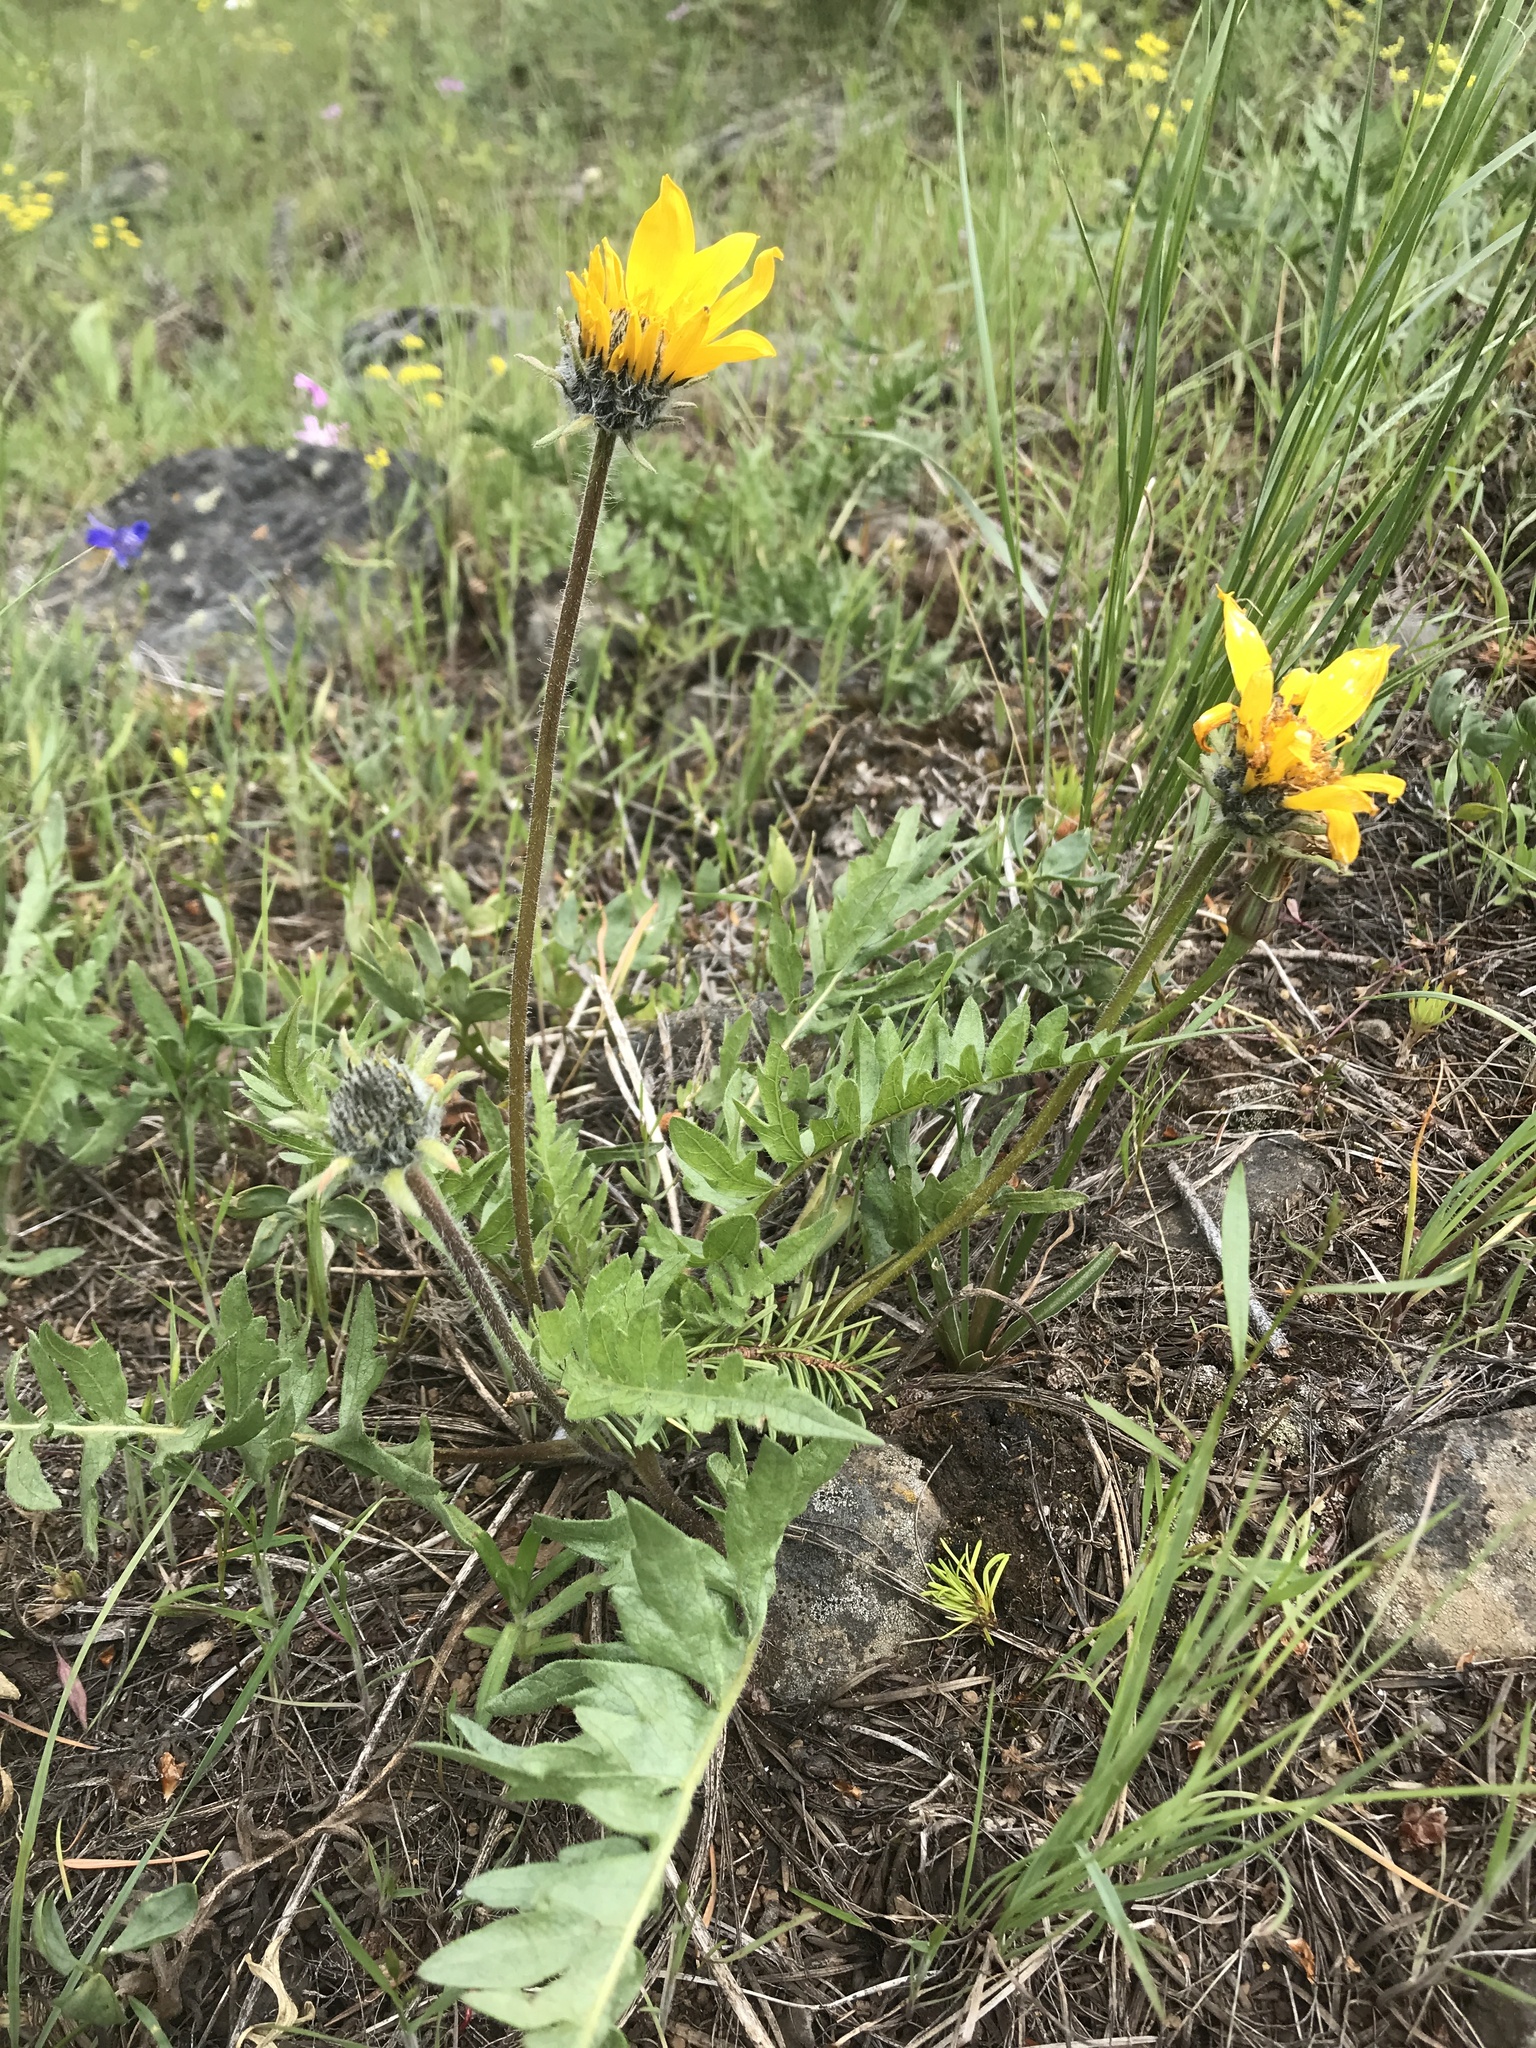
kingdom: Plantae
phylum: Tracheophyta
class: Magnoliopsida
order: Asterales
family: Asteraceae
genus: Balsamorhiza
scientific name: Balsamorhiza hookeri
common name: Hooker's balsamroot
